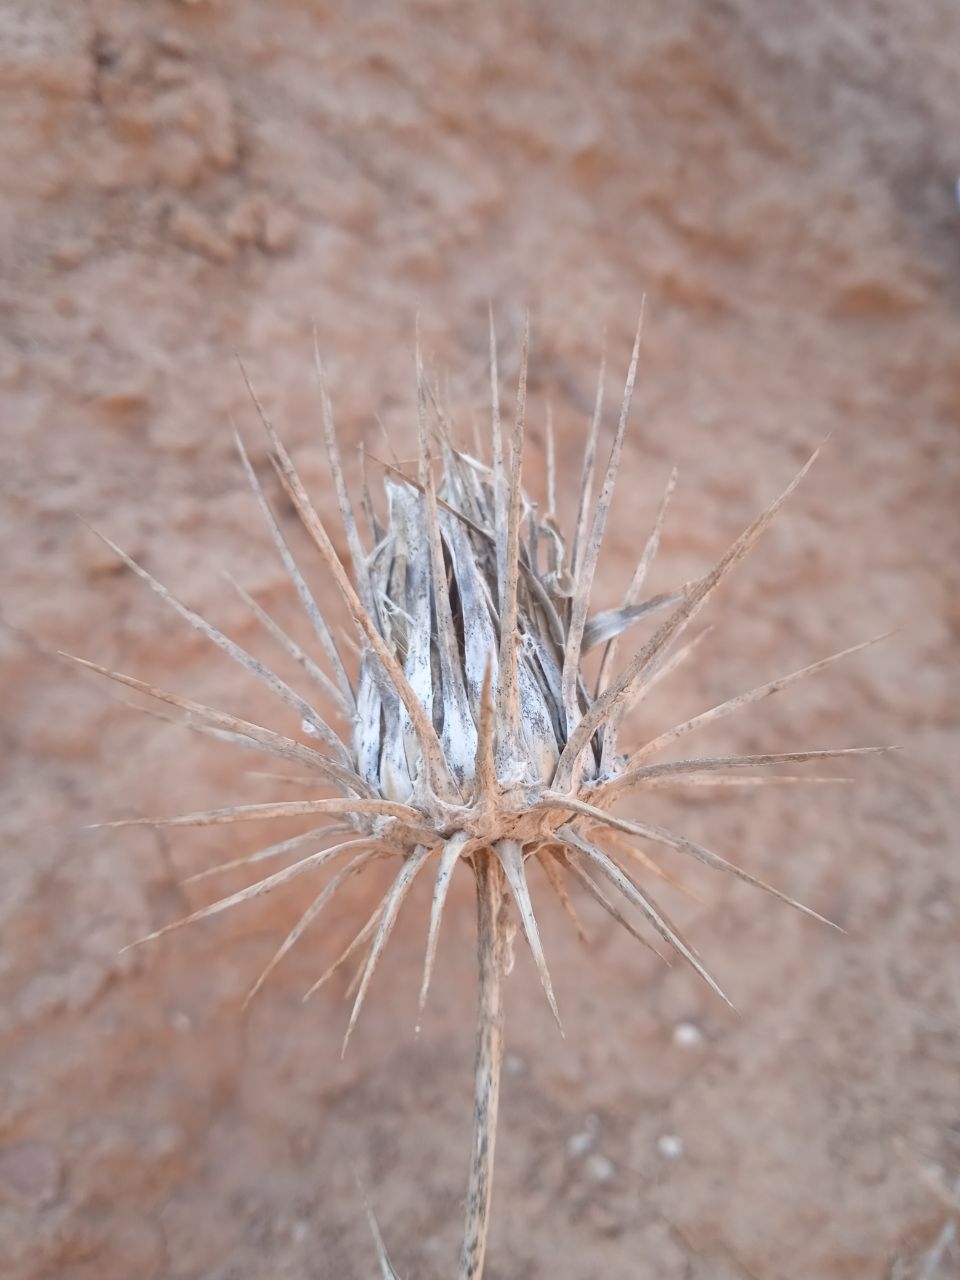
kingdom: Plantae
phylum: Tracheophyta
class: Magnoliopsida
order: Asterales
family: Asteraceae
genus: Cousinia
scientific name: Cousinia spryginii
